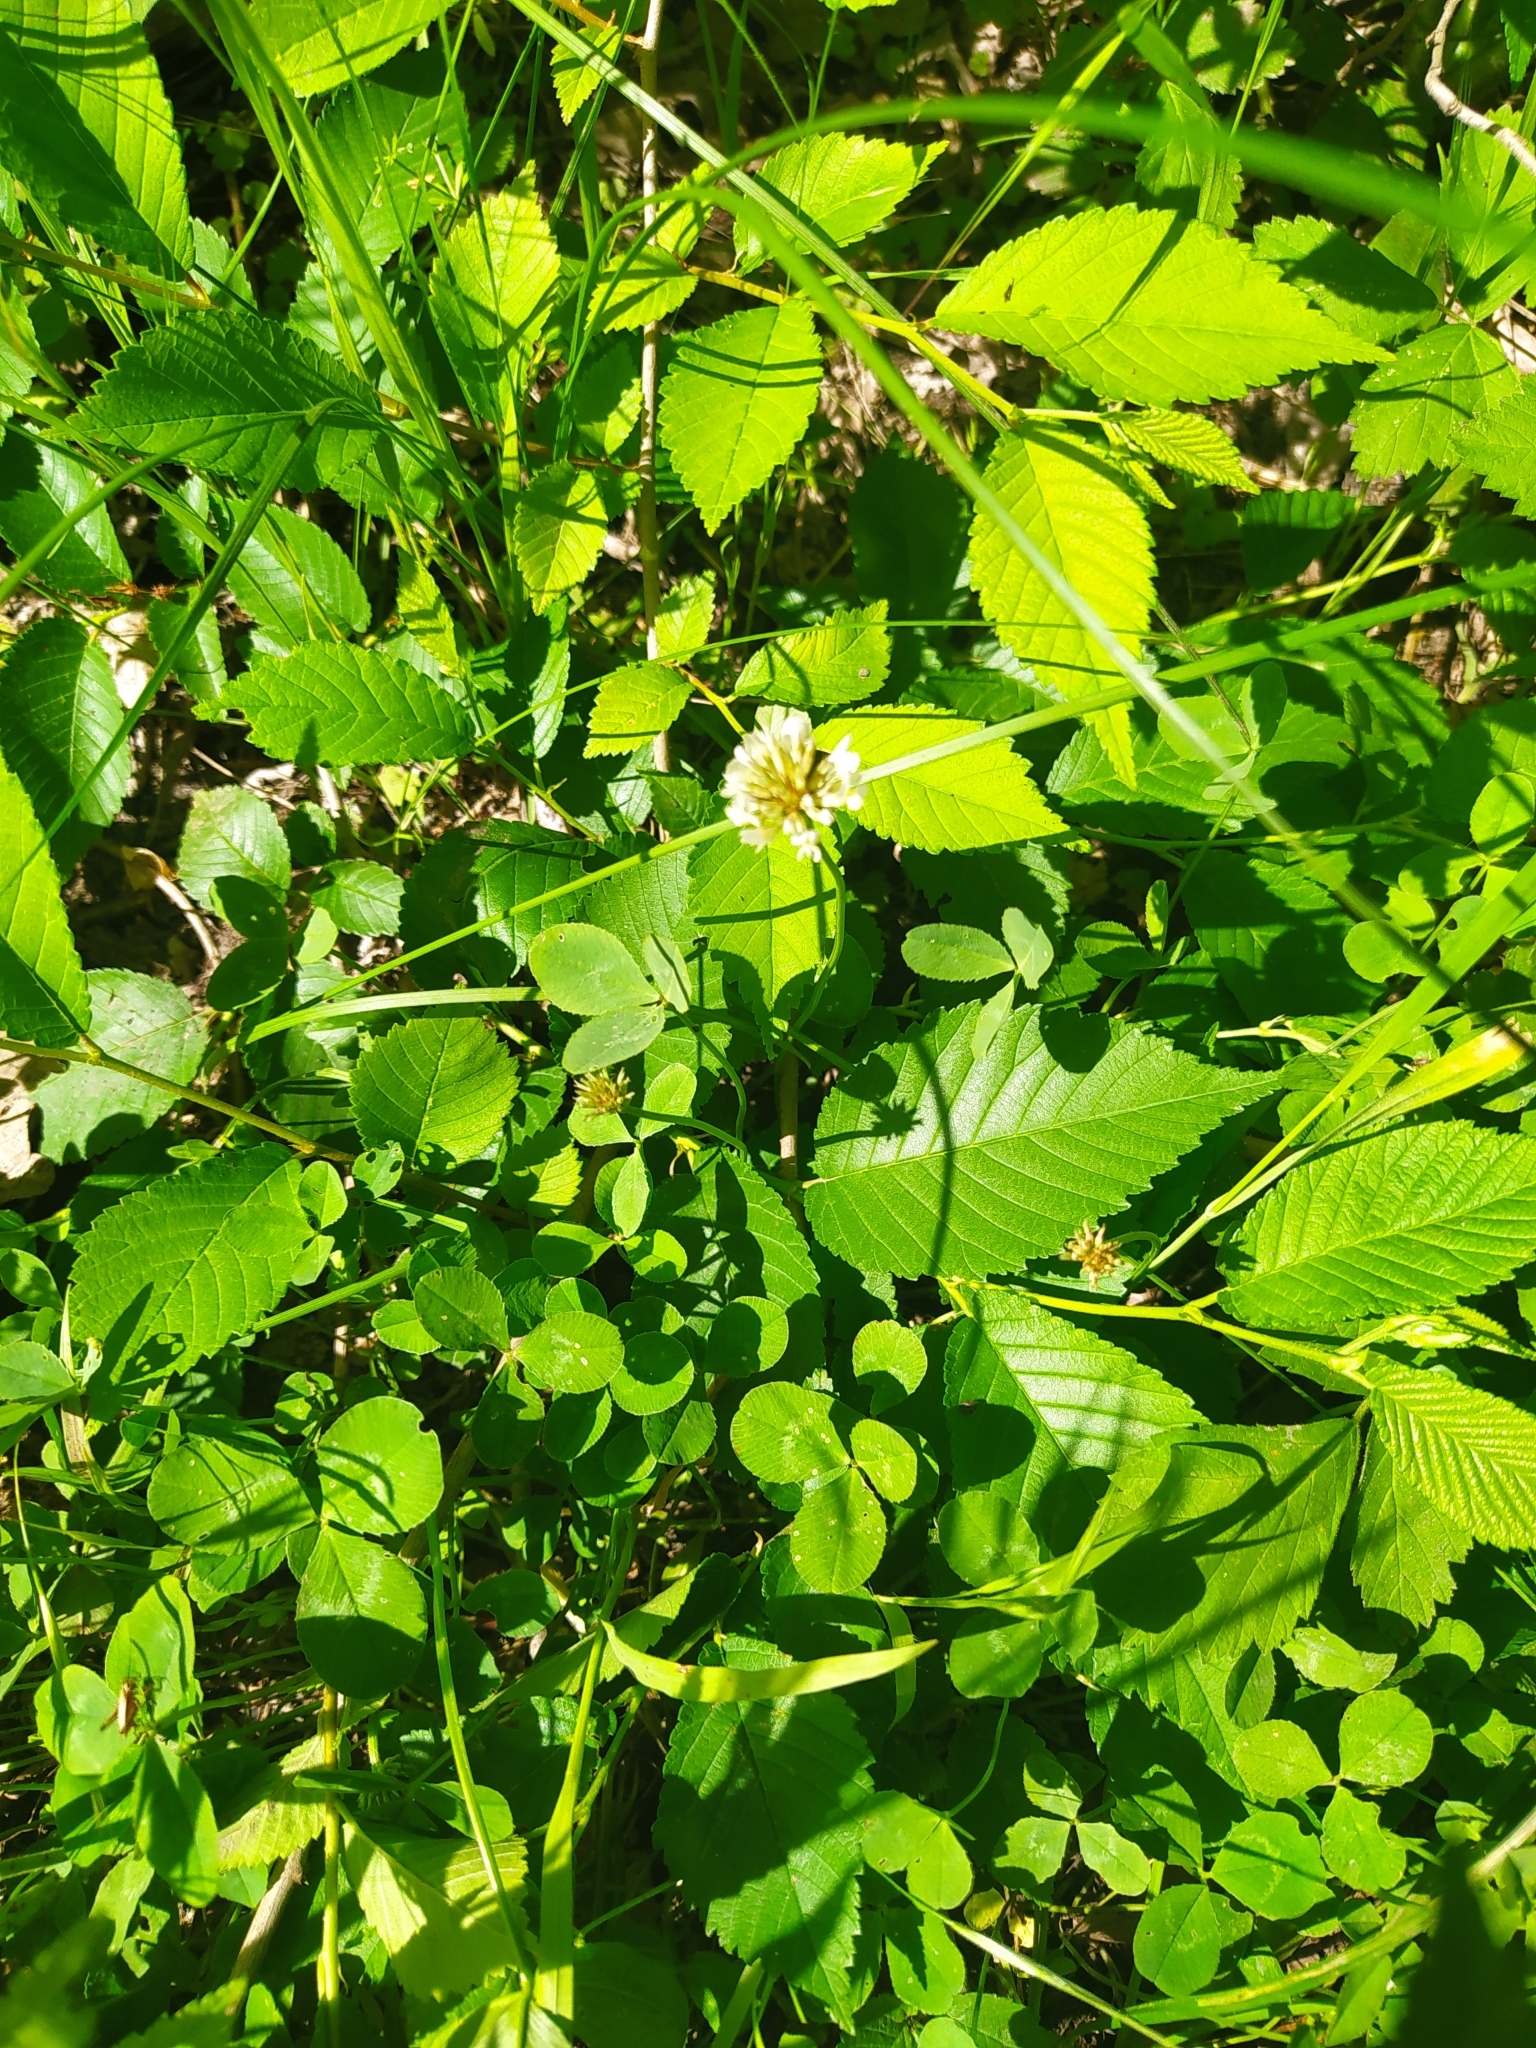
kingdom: Plantae
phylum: Tracheophyta
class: Magnoliopsida
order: Fabales
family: Fabaceae
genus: Trifolium
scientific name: Trifolium repens
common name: White clover
